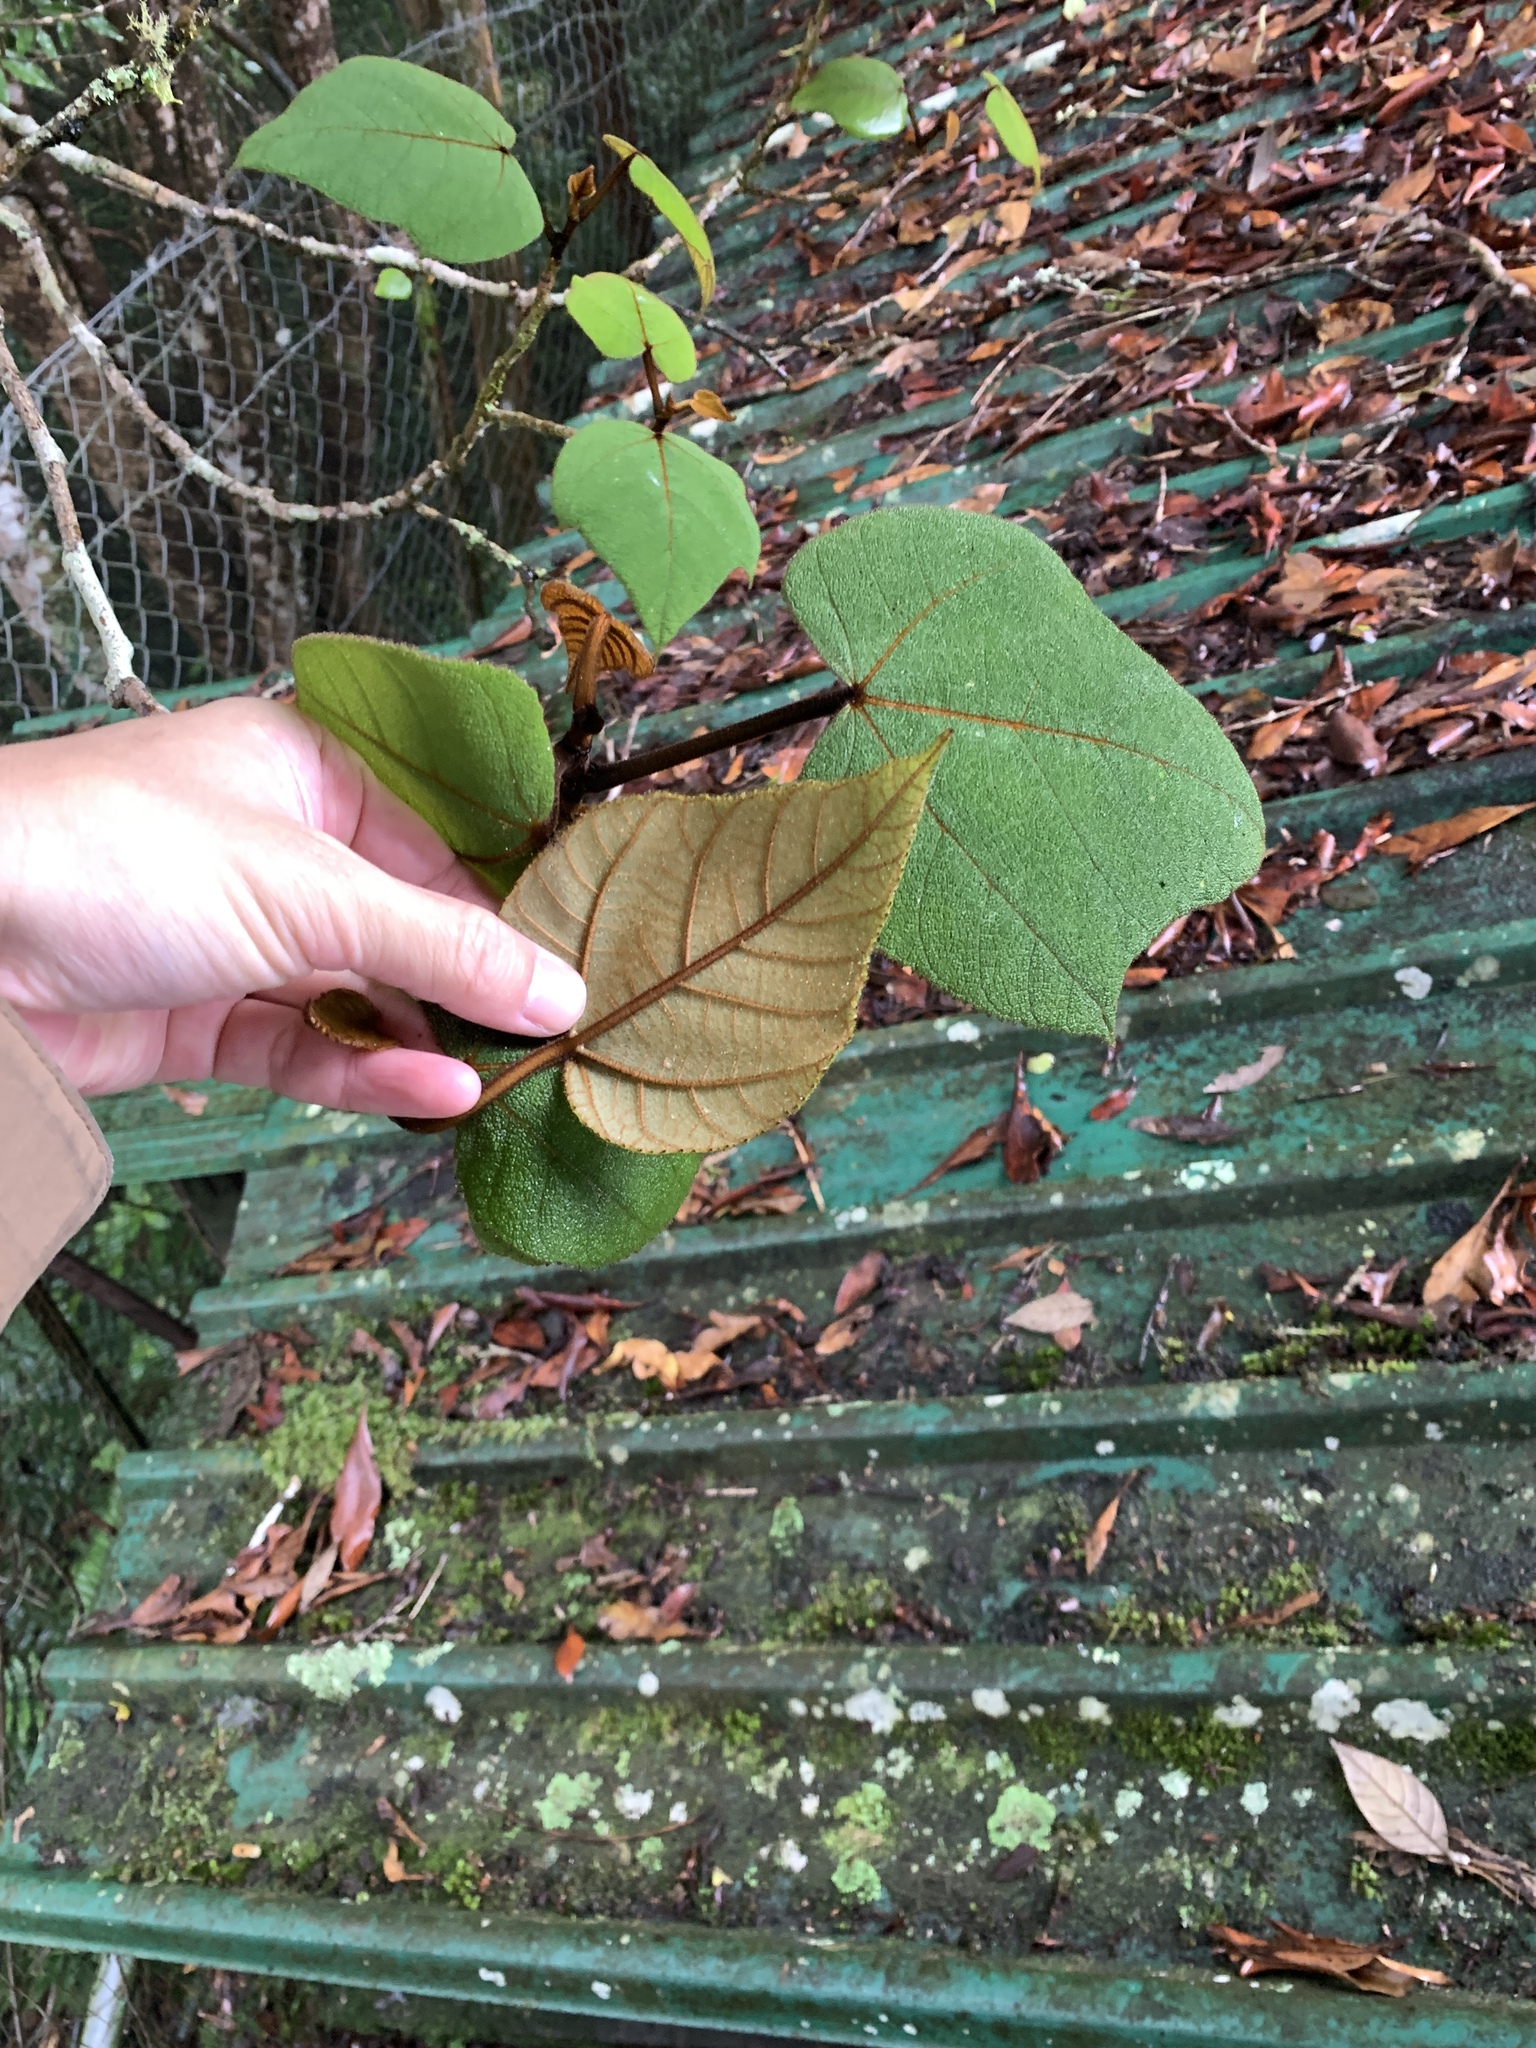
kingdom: Plantae
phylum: Tracheophyta
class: Magnoliopsida
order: Rosales
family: Moraceae
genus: Ficus
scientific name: Ficus eumorpha
